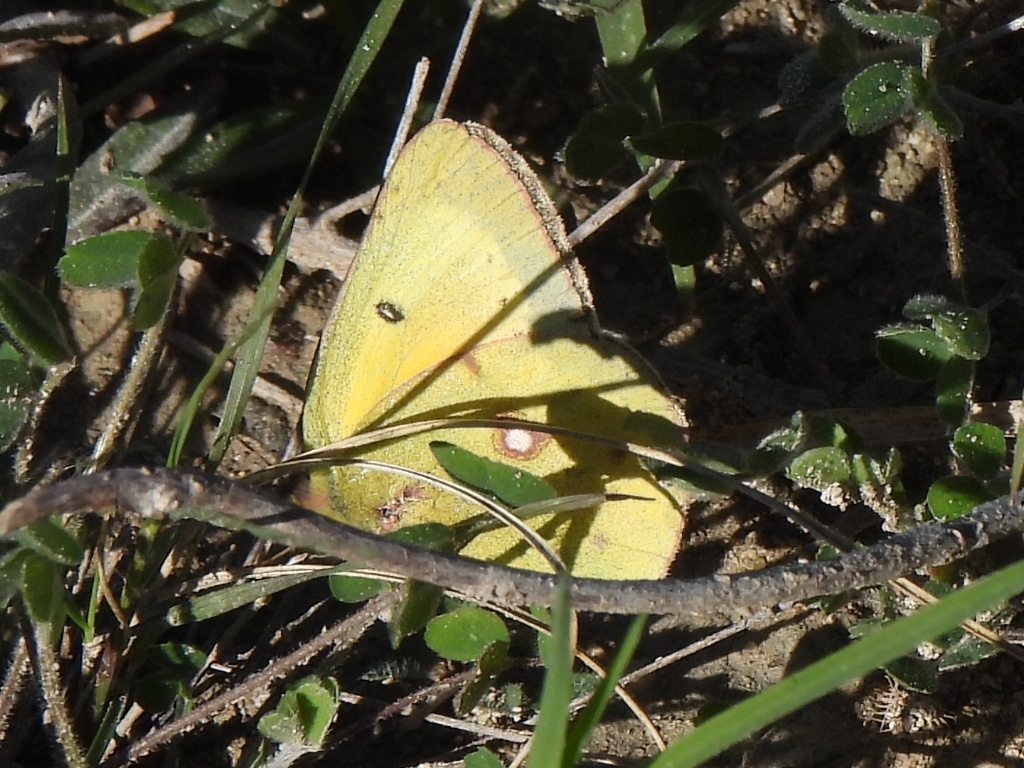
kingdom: Animalia
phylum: Arthropoda
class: Insecta
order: Lepidoptera
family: Pieridae
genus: Colias
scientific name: Colias eurytheme
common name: Alfalfa butterfly
